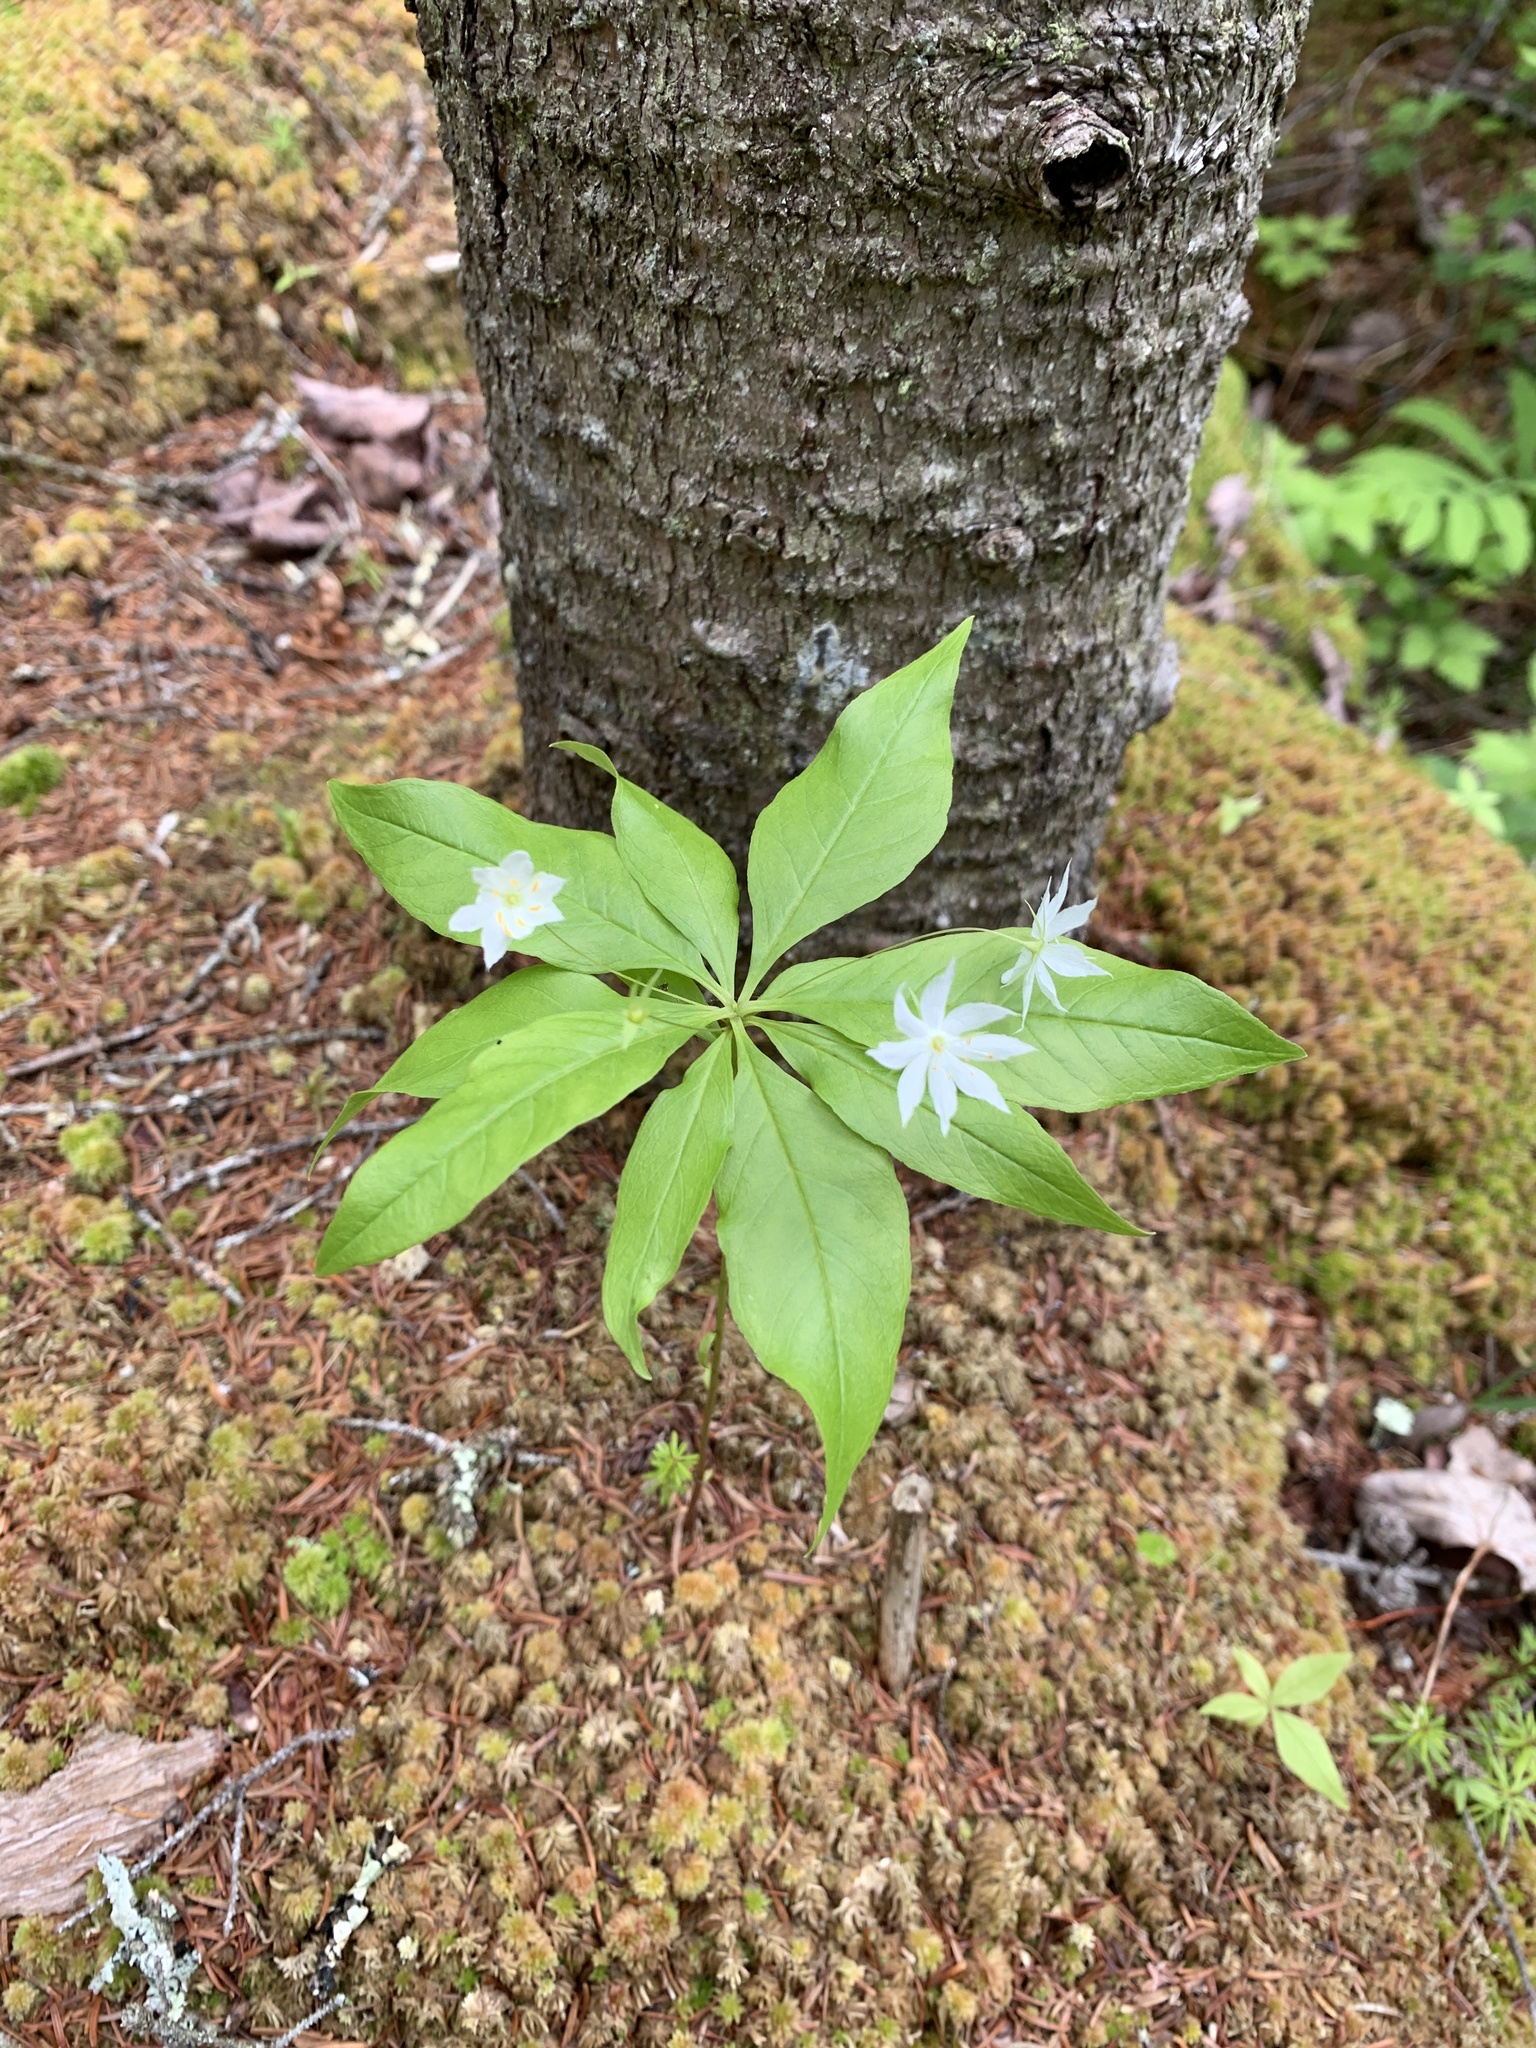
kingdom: Plantae
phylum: Tracheophyta
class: Magnoliopsida
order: Ericales
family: Primulaceae
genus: Lysimachia
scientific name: Lysimachia borealis
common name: American starflower
